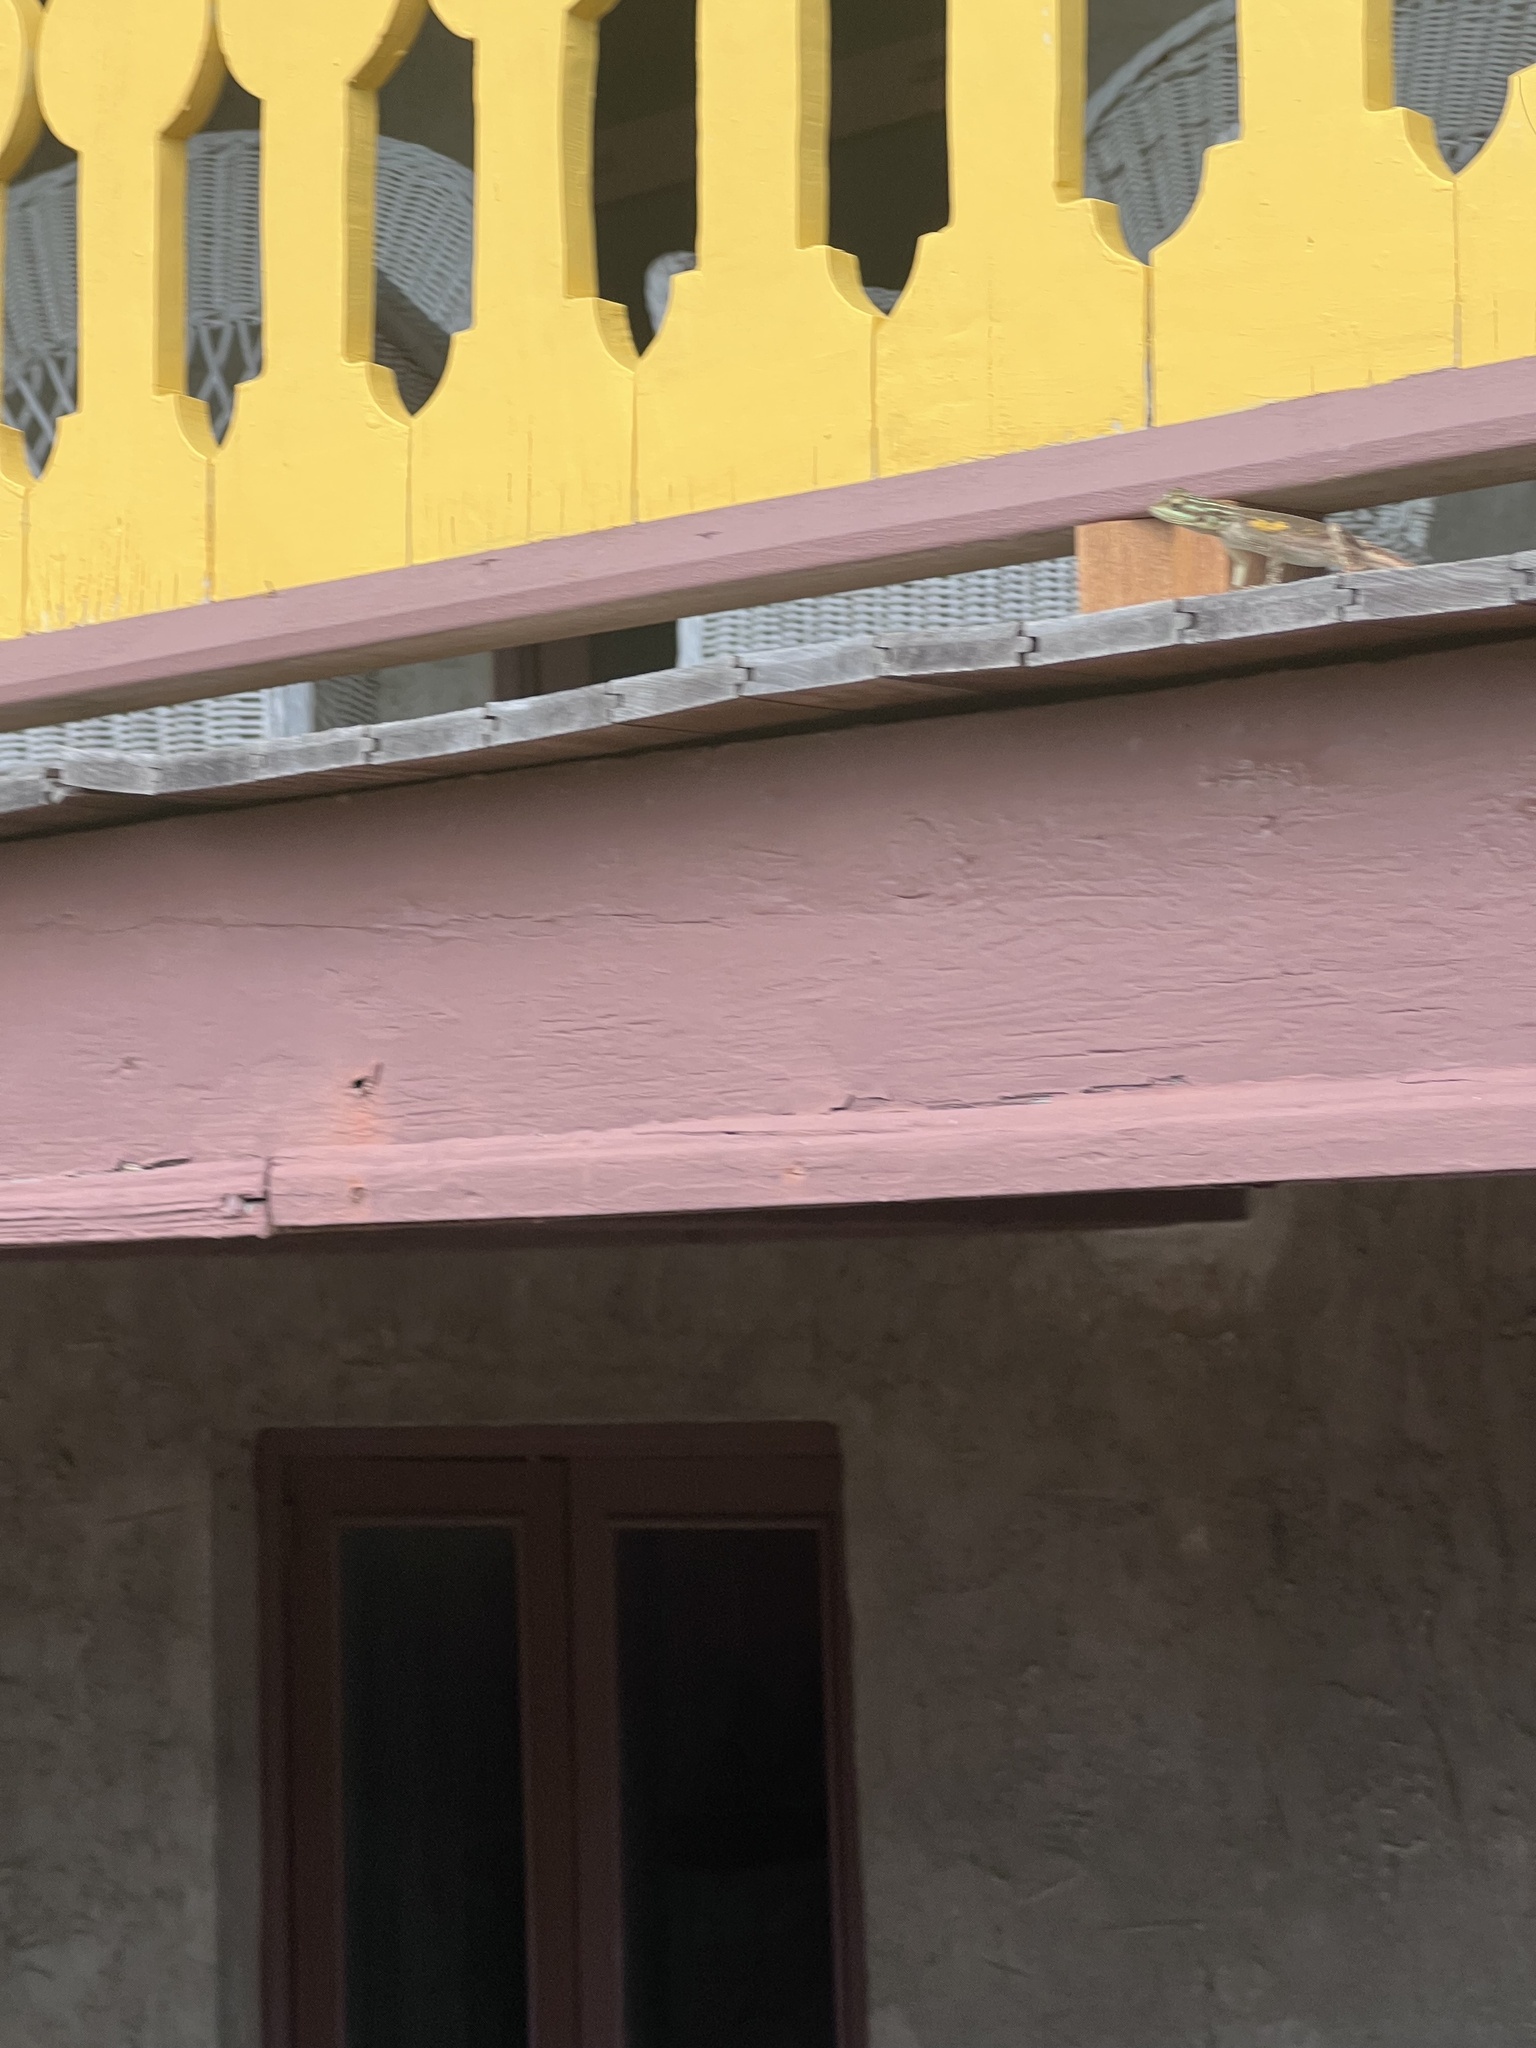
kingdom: Animalia
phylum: Chordata
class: Squamata
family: Agamidae
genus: Agama
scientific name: Agama picticauda
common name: Red-headed agama
